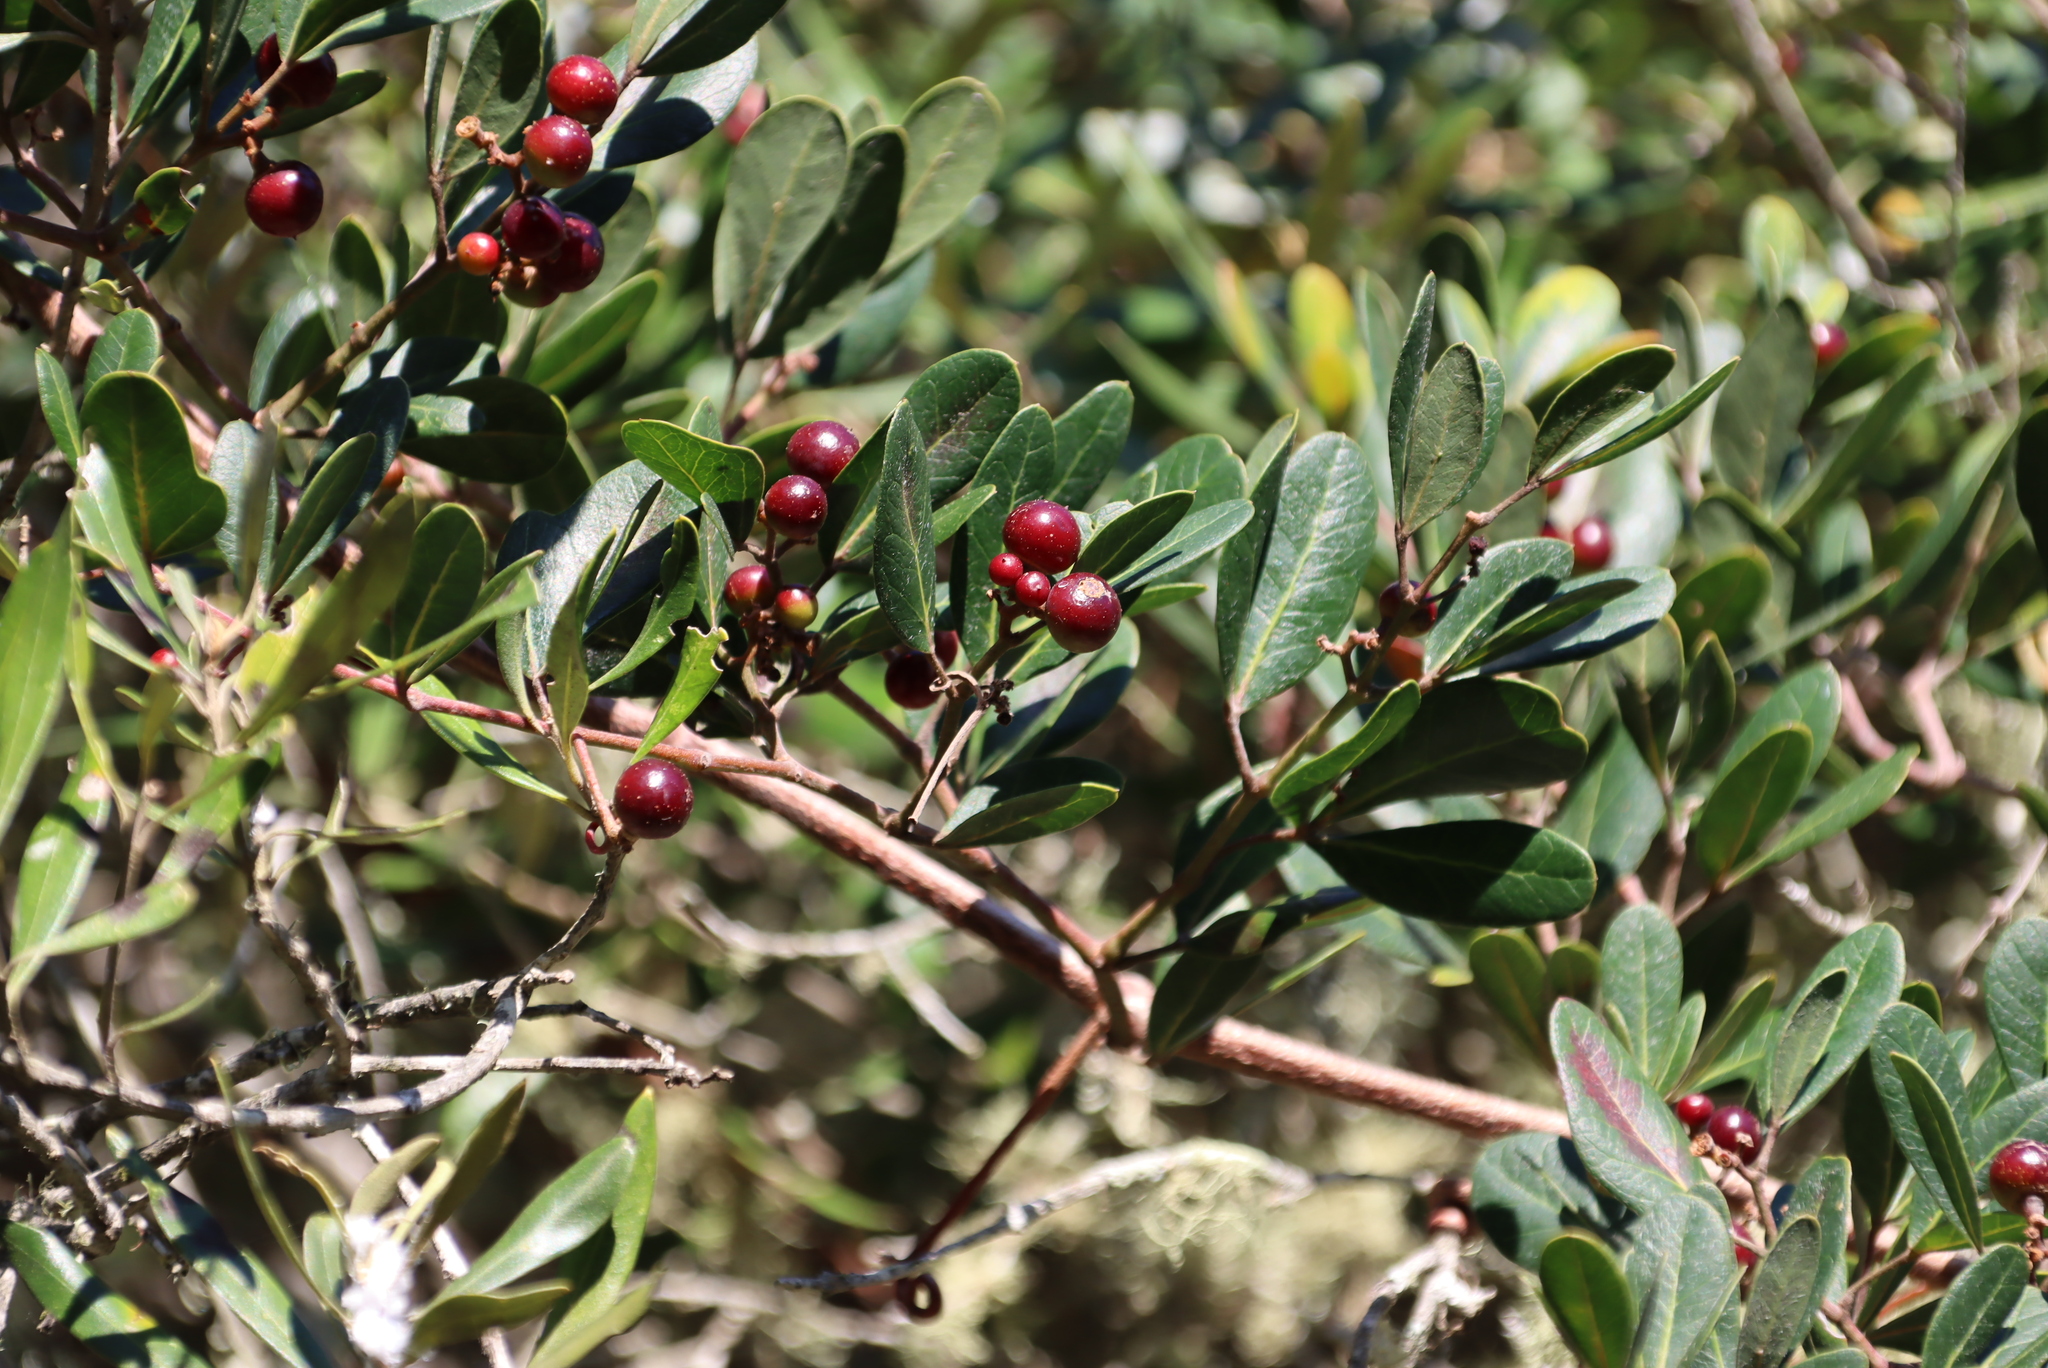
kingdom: Plantae
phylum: Tracheophyta
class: Magnoliopsida
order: Vitales
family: Vitaceae
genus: Rhoicissus
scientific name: Rhoicissus digitata
